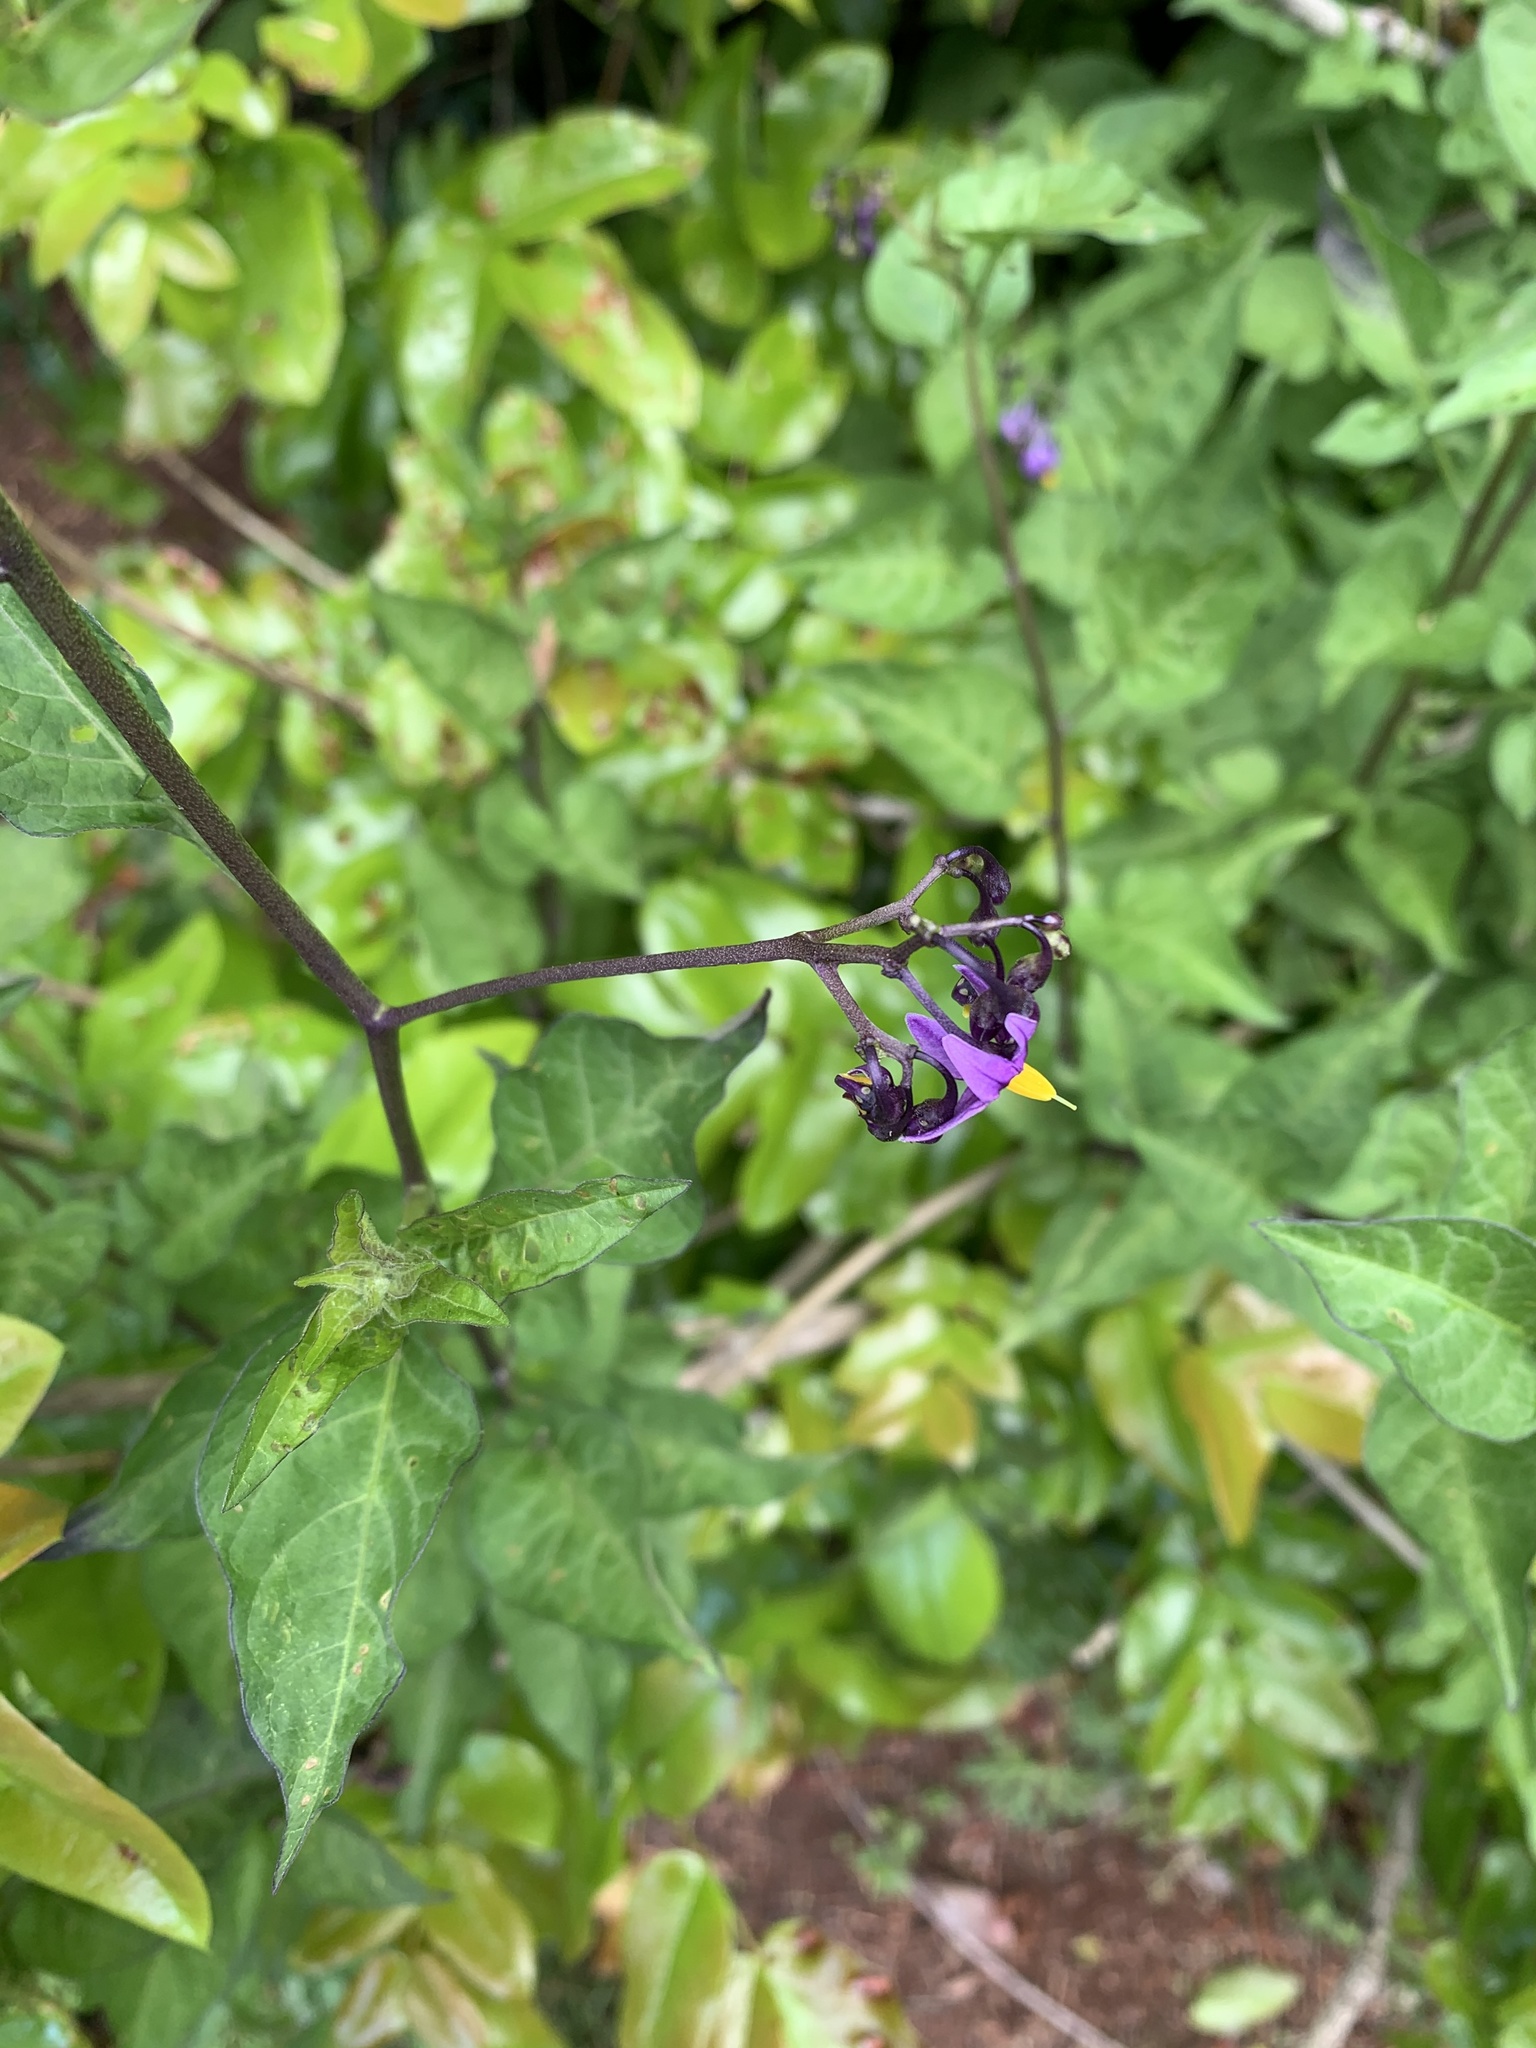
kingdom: Plantae
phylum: Tracheophyta
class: Magnoliopsida
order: Solanales
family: Solanaceae
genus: Solanum
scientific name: Solanum dulcamara
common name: Climbing nightshade
